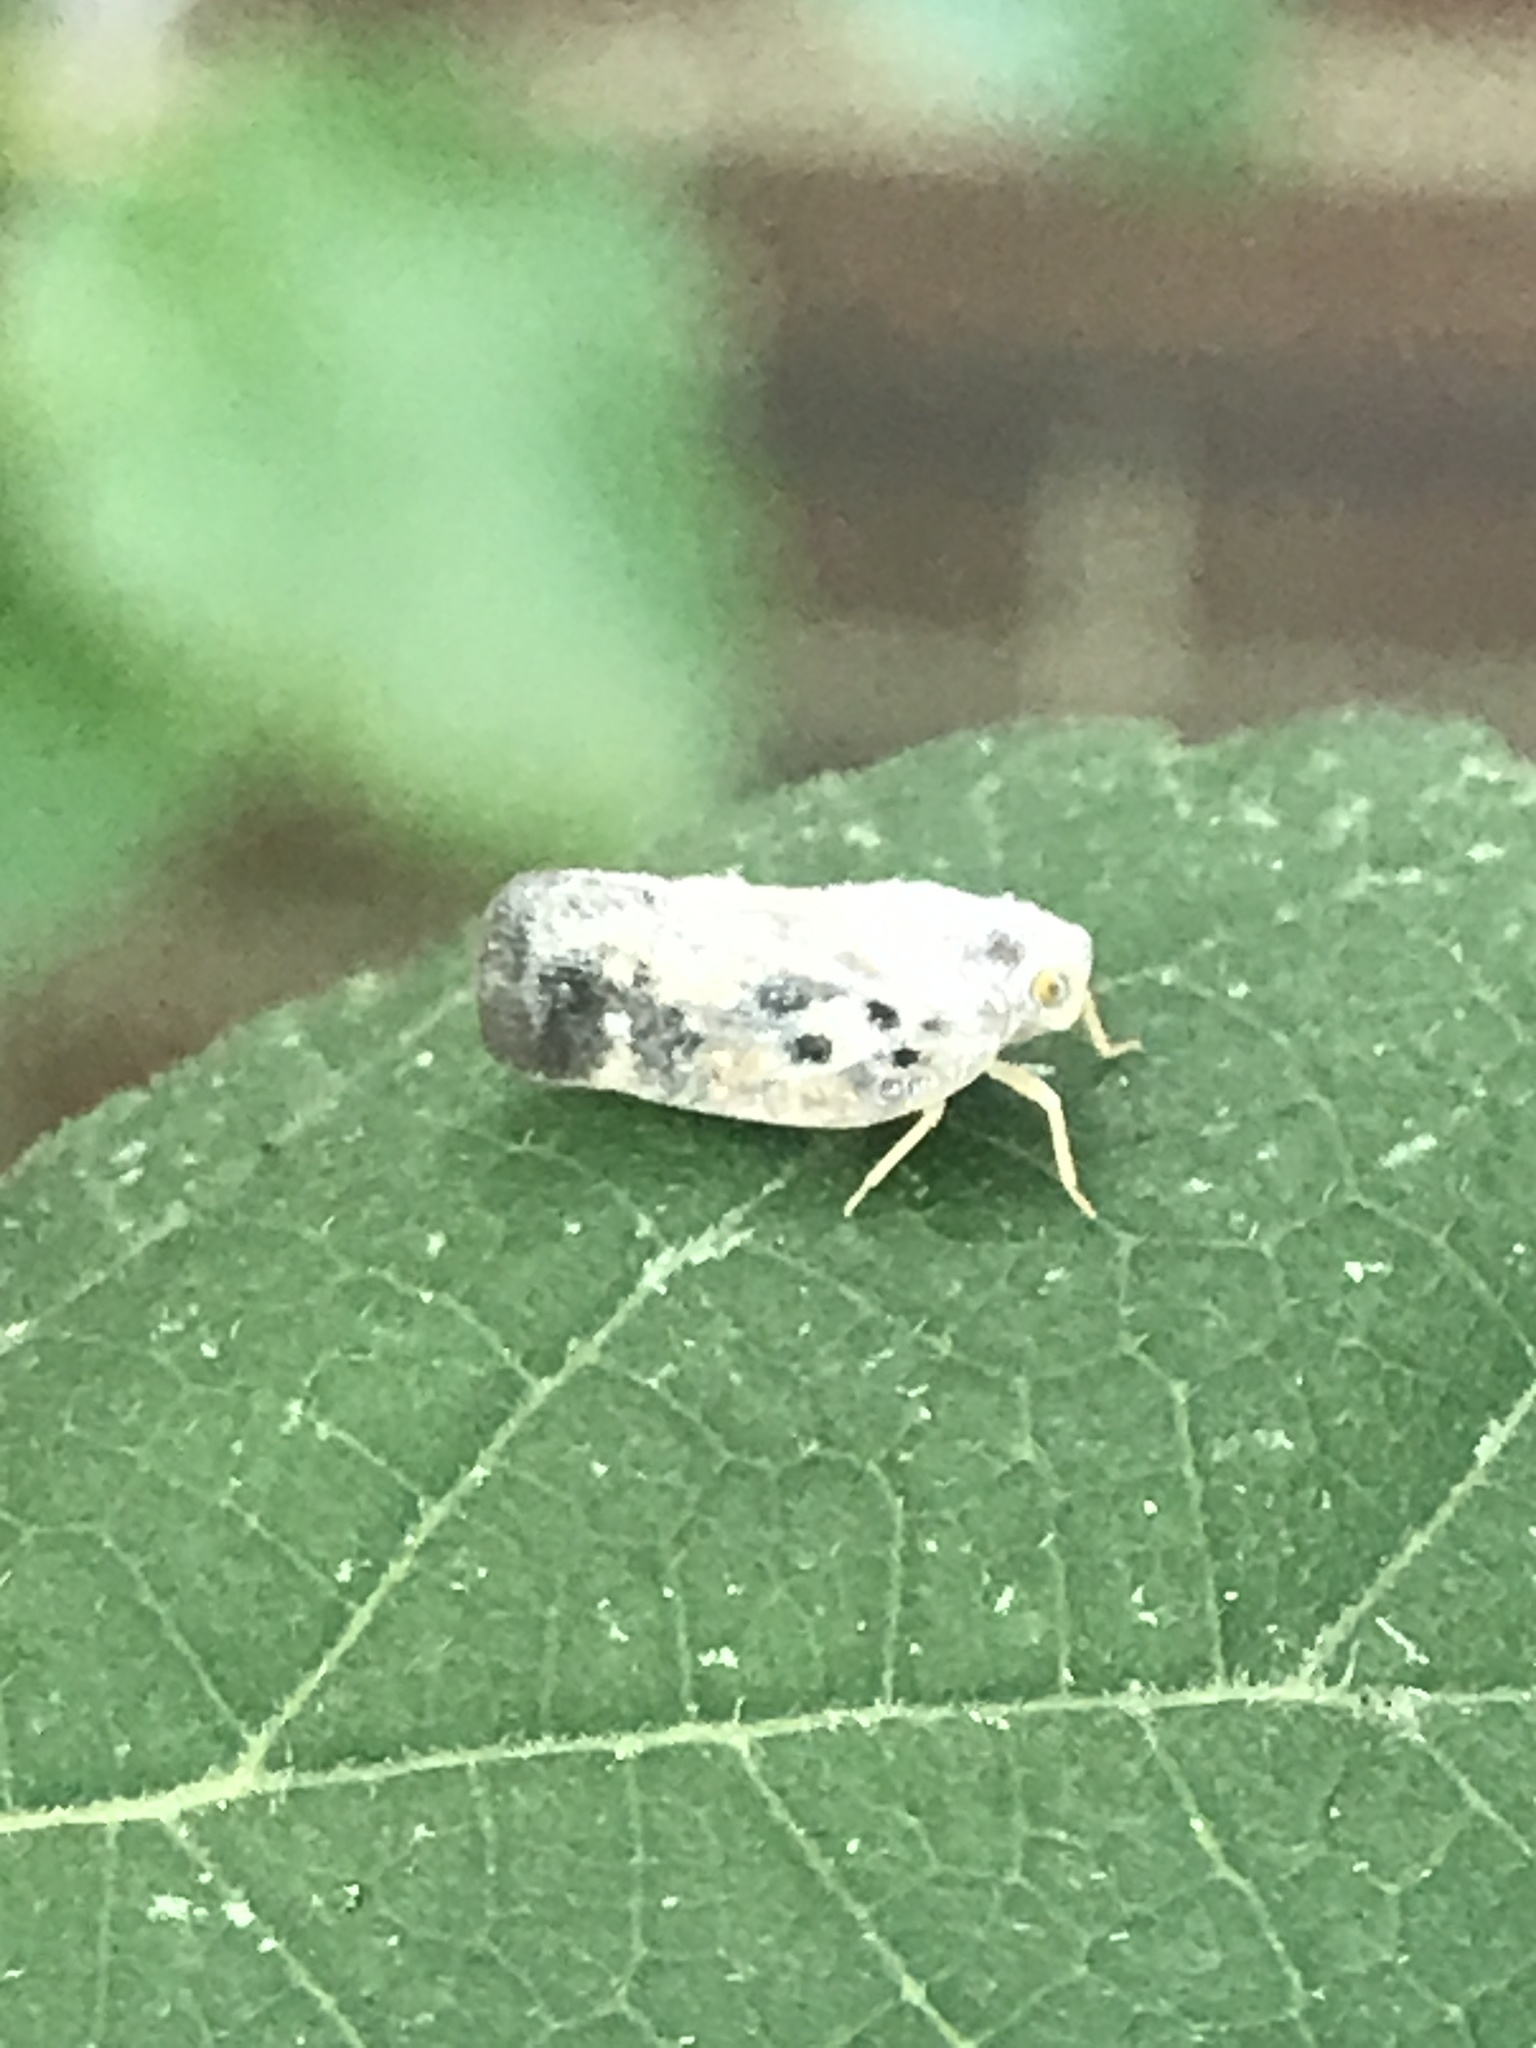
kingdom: Animalia
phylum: Arthropoda
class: Insecta
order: Hemiptera
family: Flatidae
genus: Metcalfa
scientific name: Metcalfa pruinosa
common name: Citrus flatid planthopper
